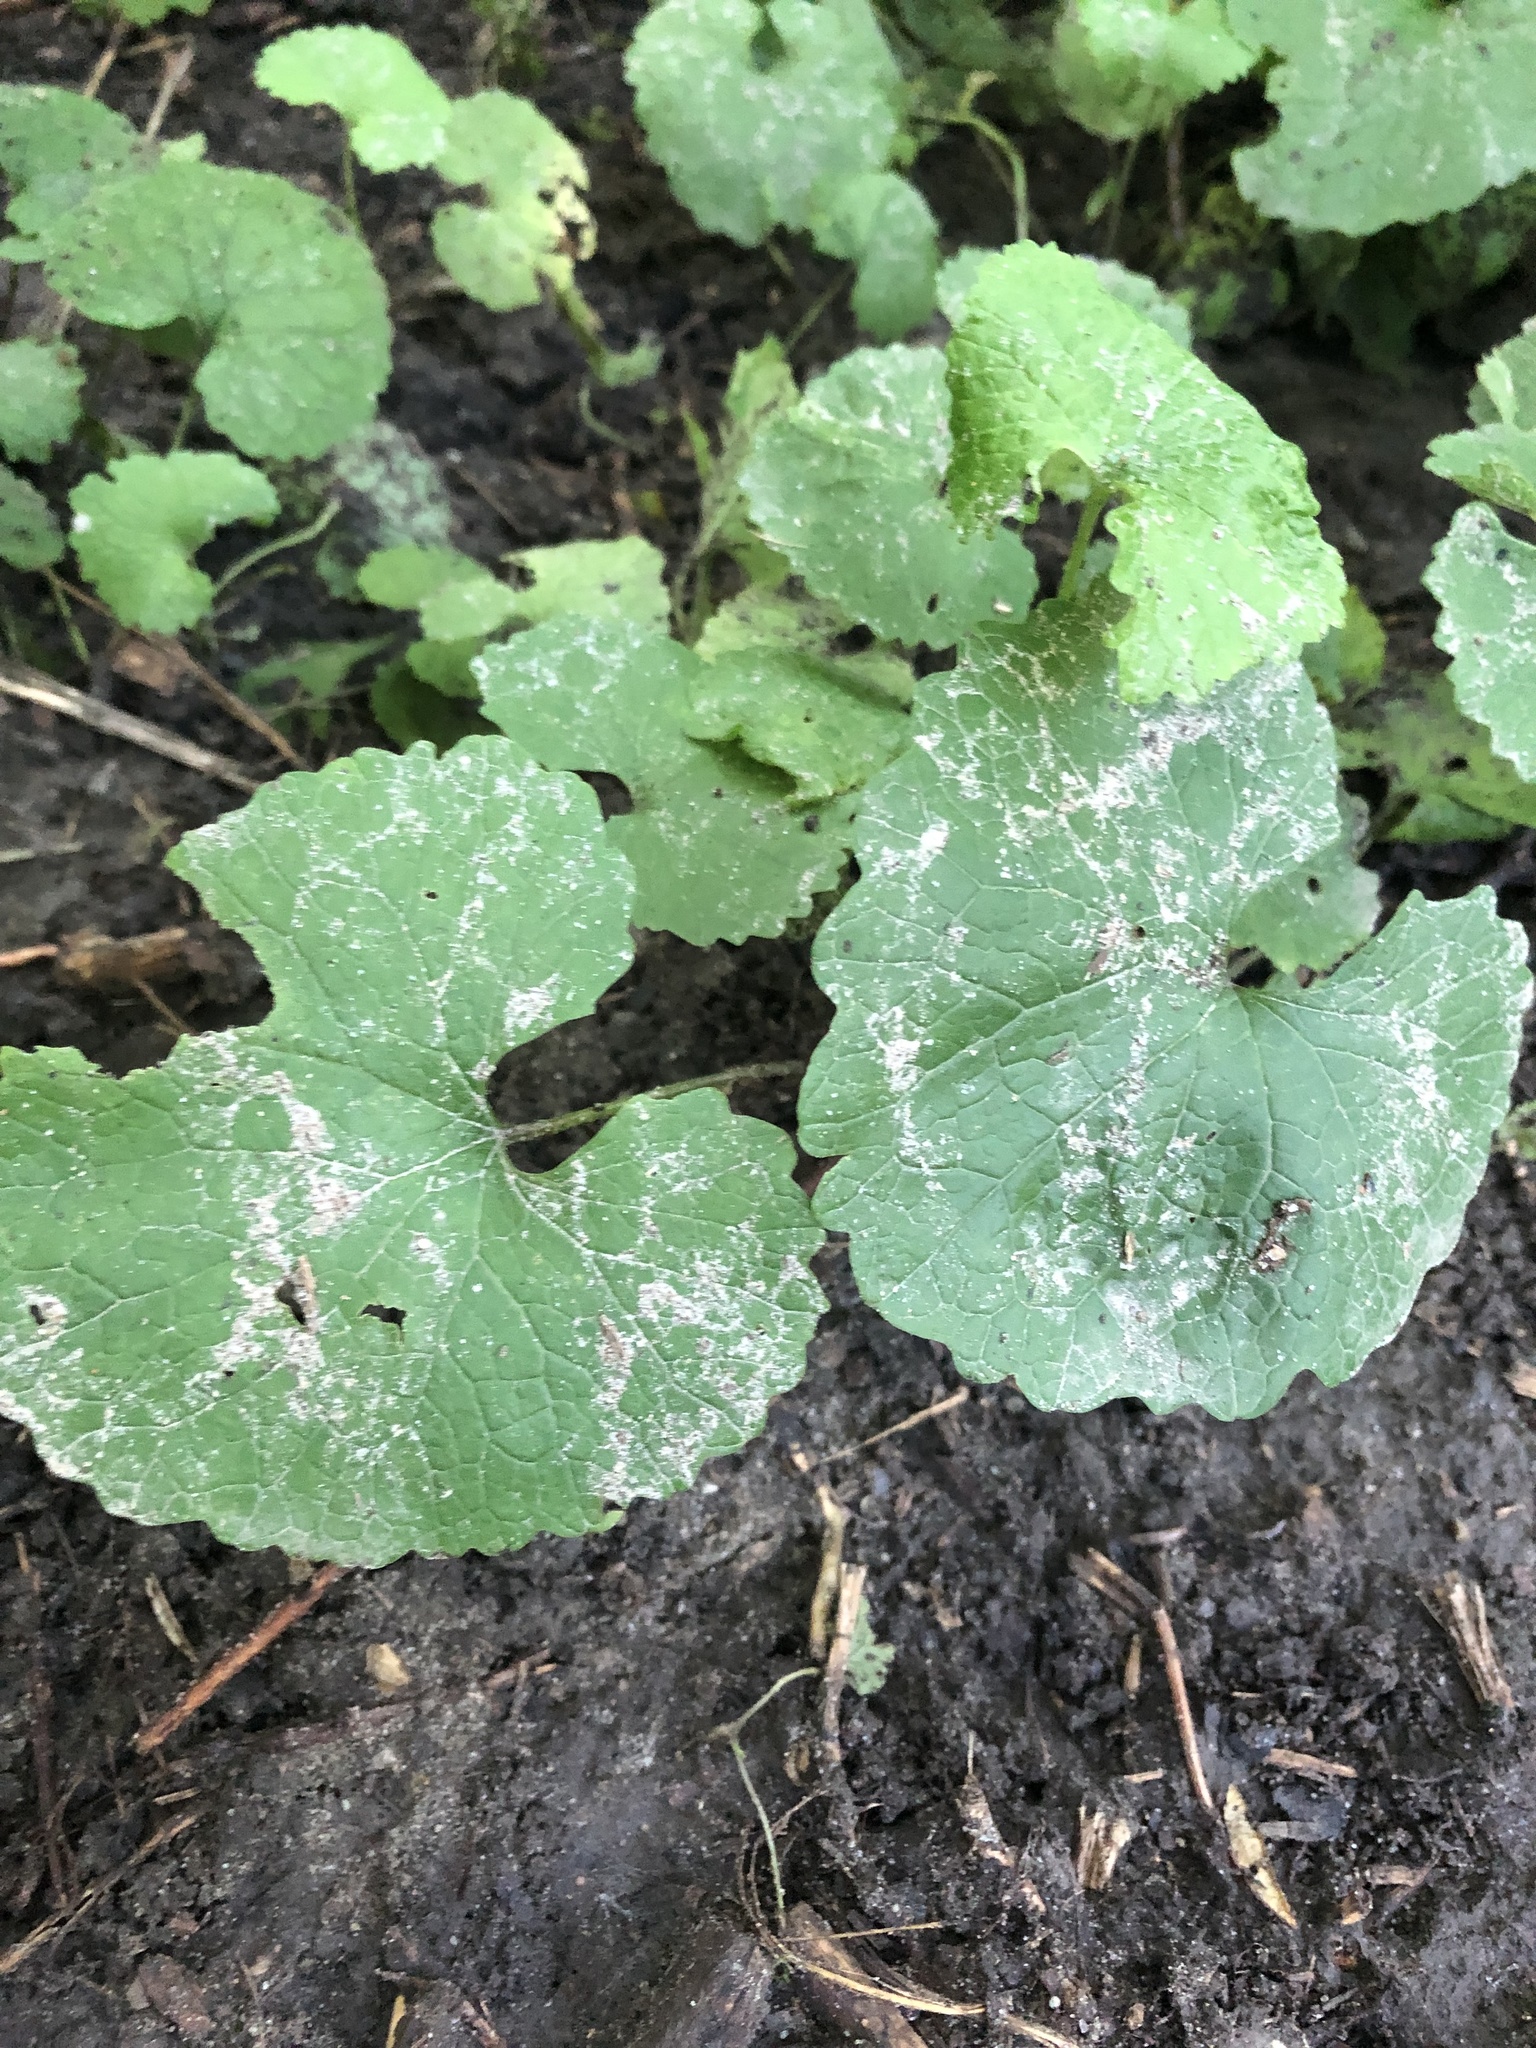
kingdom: Plantae
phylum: Tracheophyta
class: Magnoliopsida
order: Brassicales
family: Brassicaceae
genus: Alliaria
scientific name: Alliaria petiolata
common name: Garlic mustard
